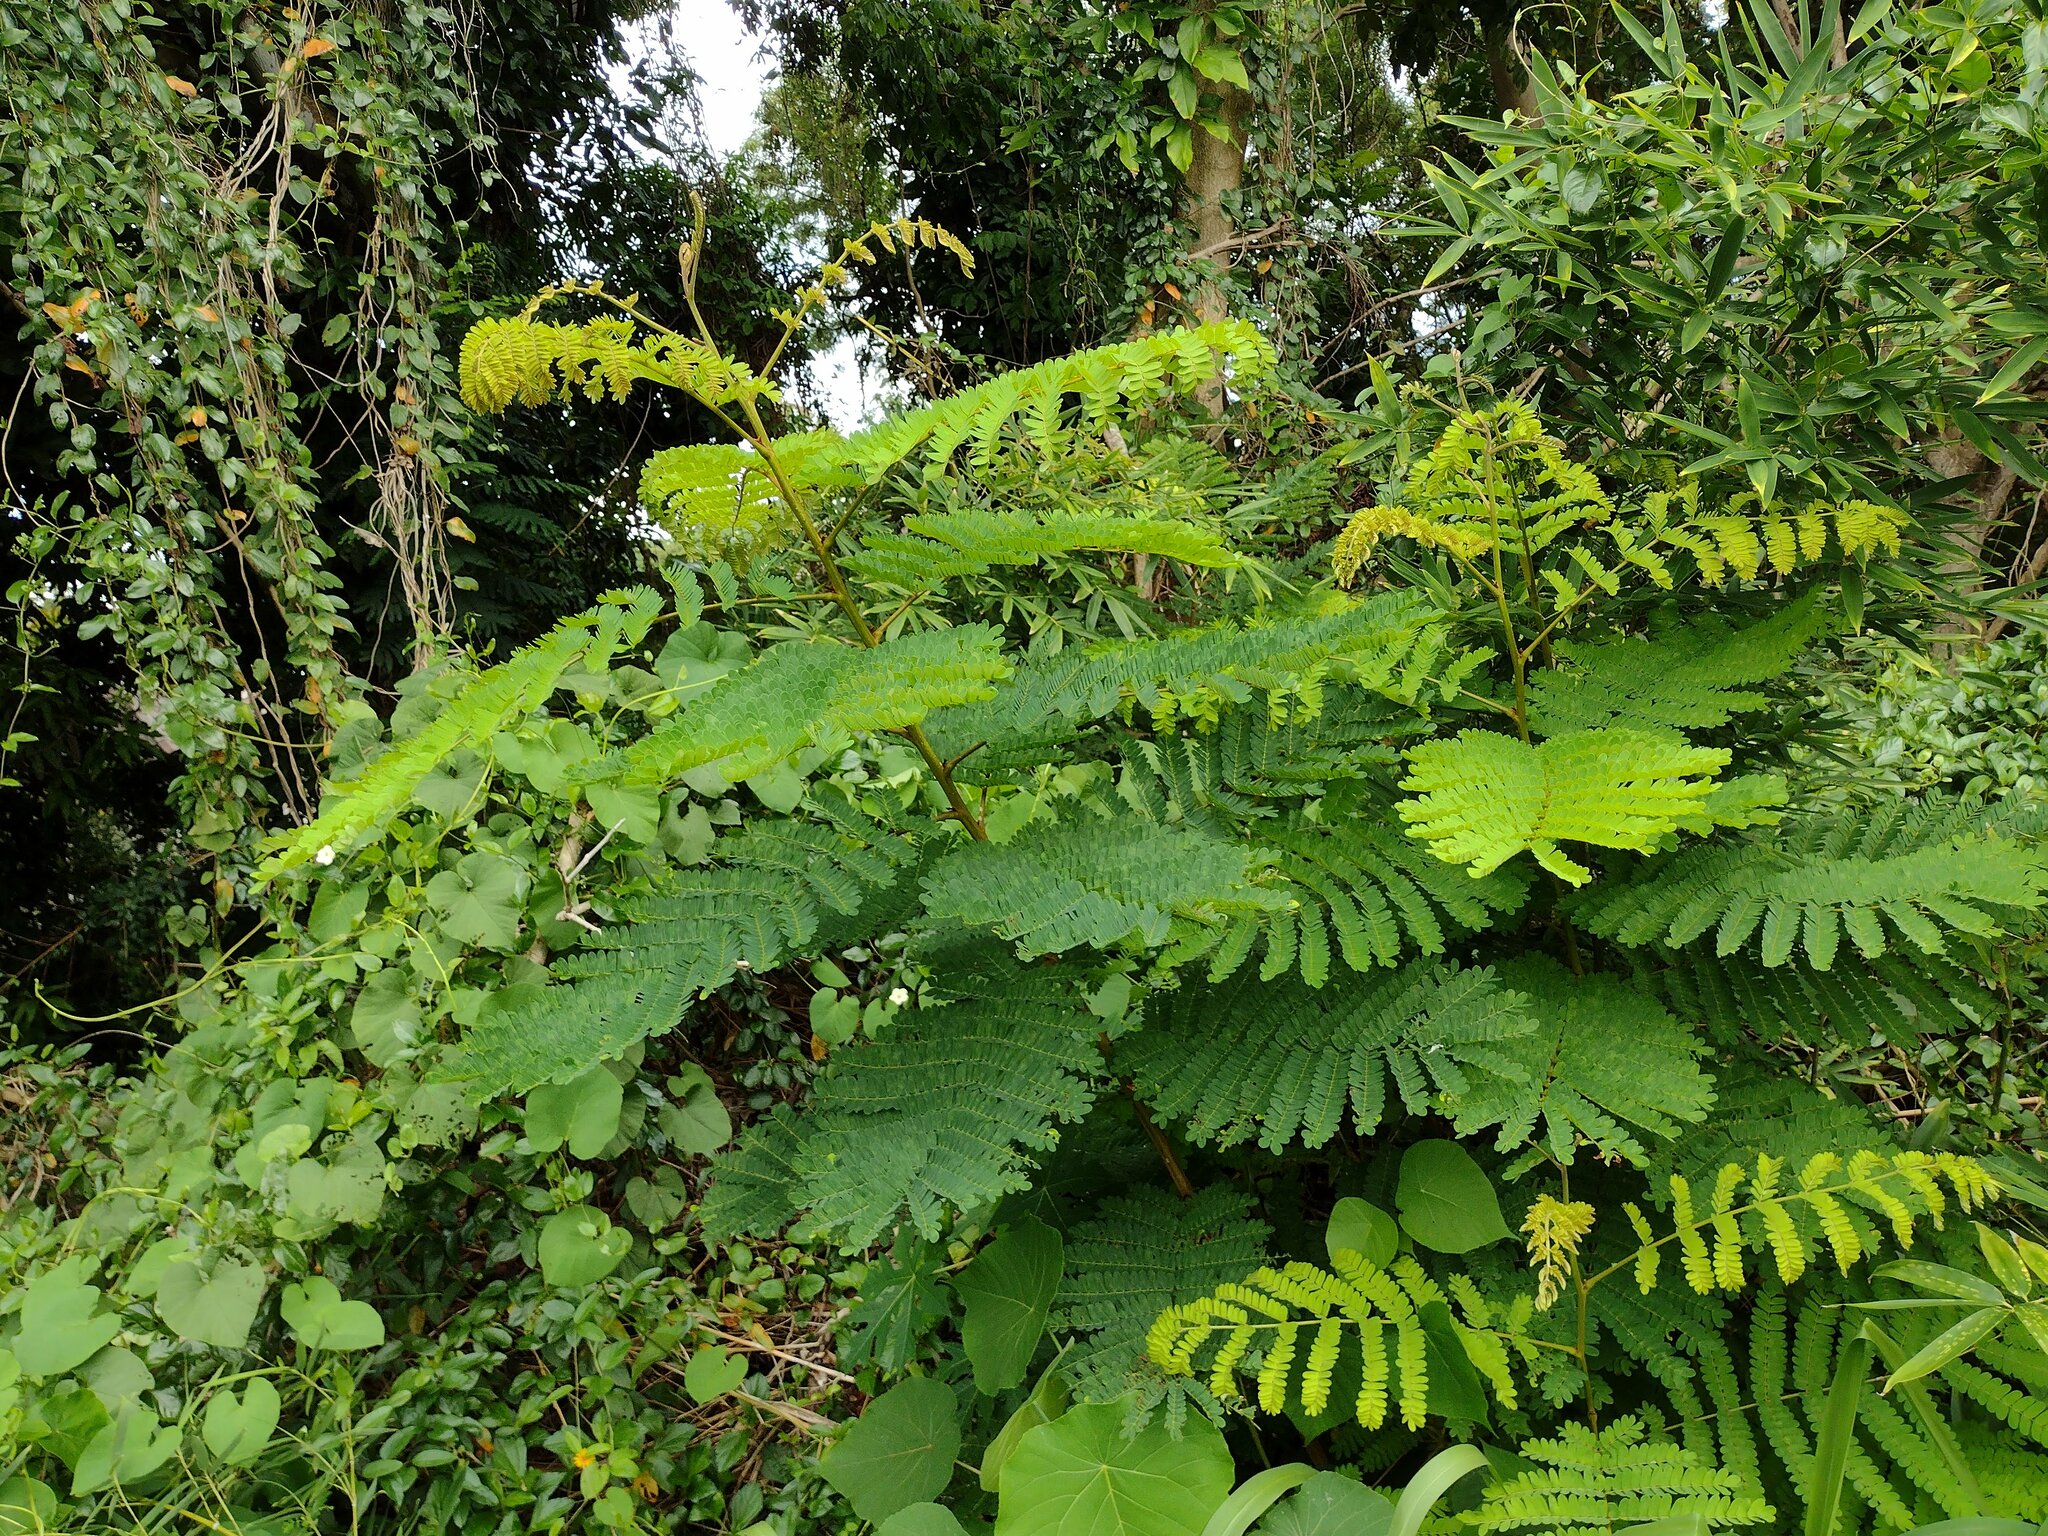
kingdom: Plantae
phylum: Tracheophyta
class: Magnoliopsida
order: Fabales
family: Fabaceae
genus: Falcataria
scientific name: Falcataria falcata
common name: Moluccan albizia
